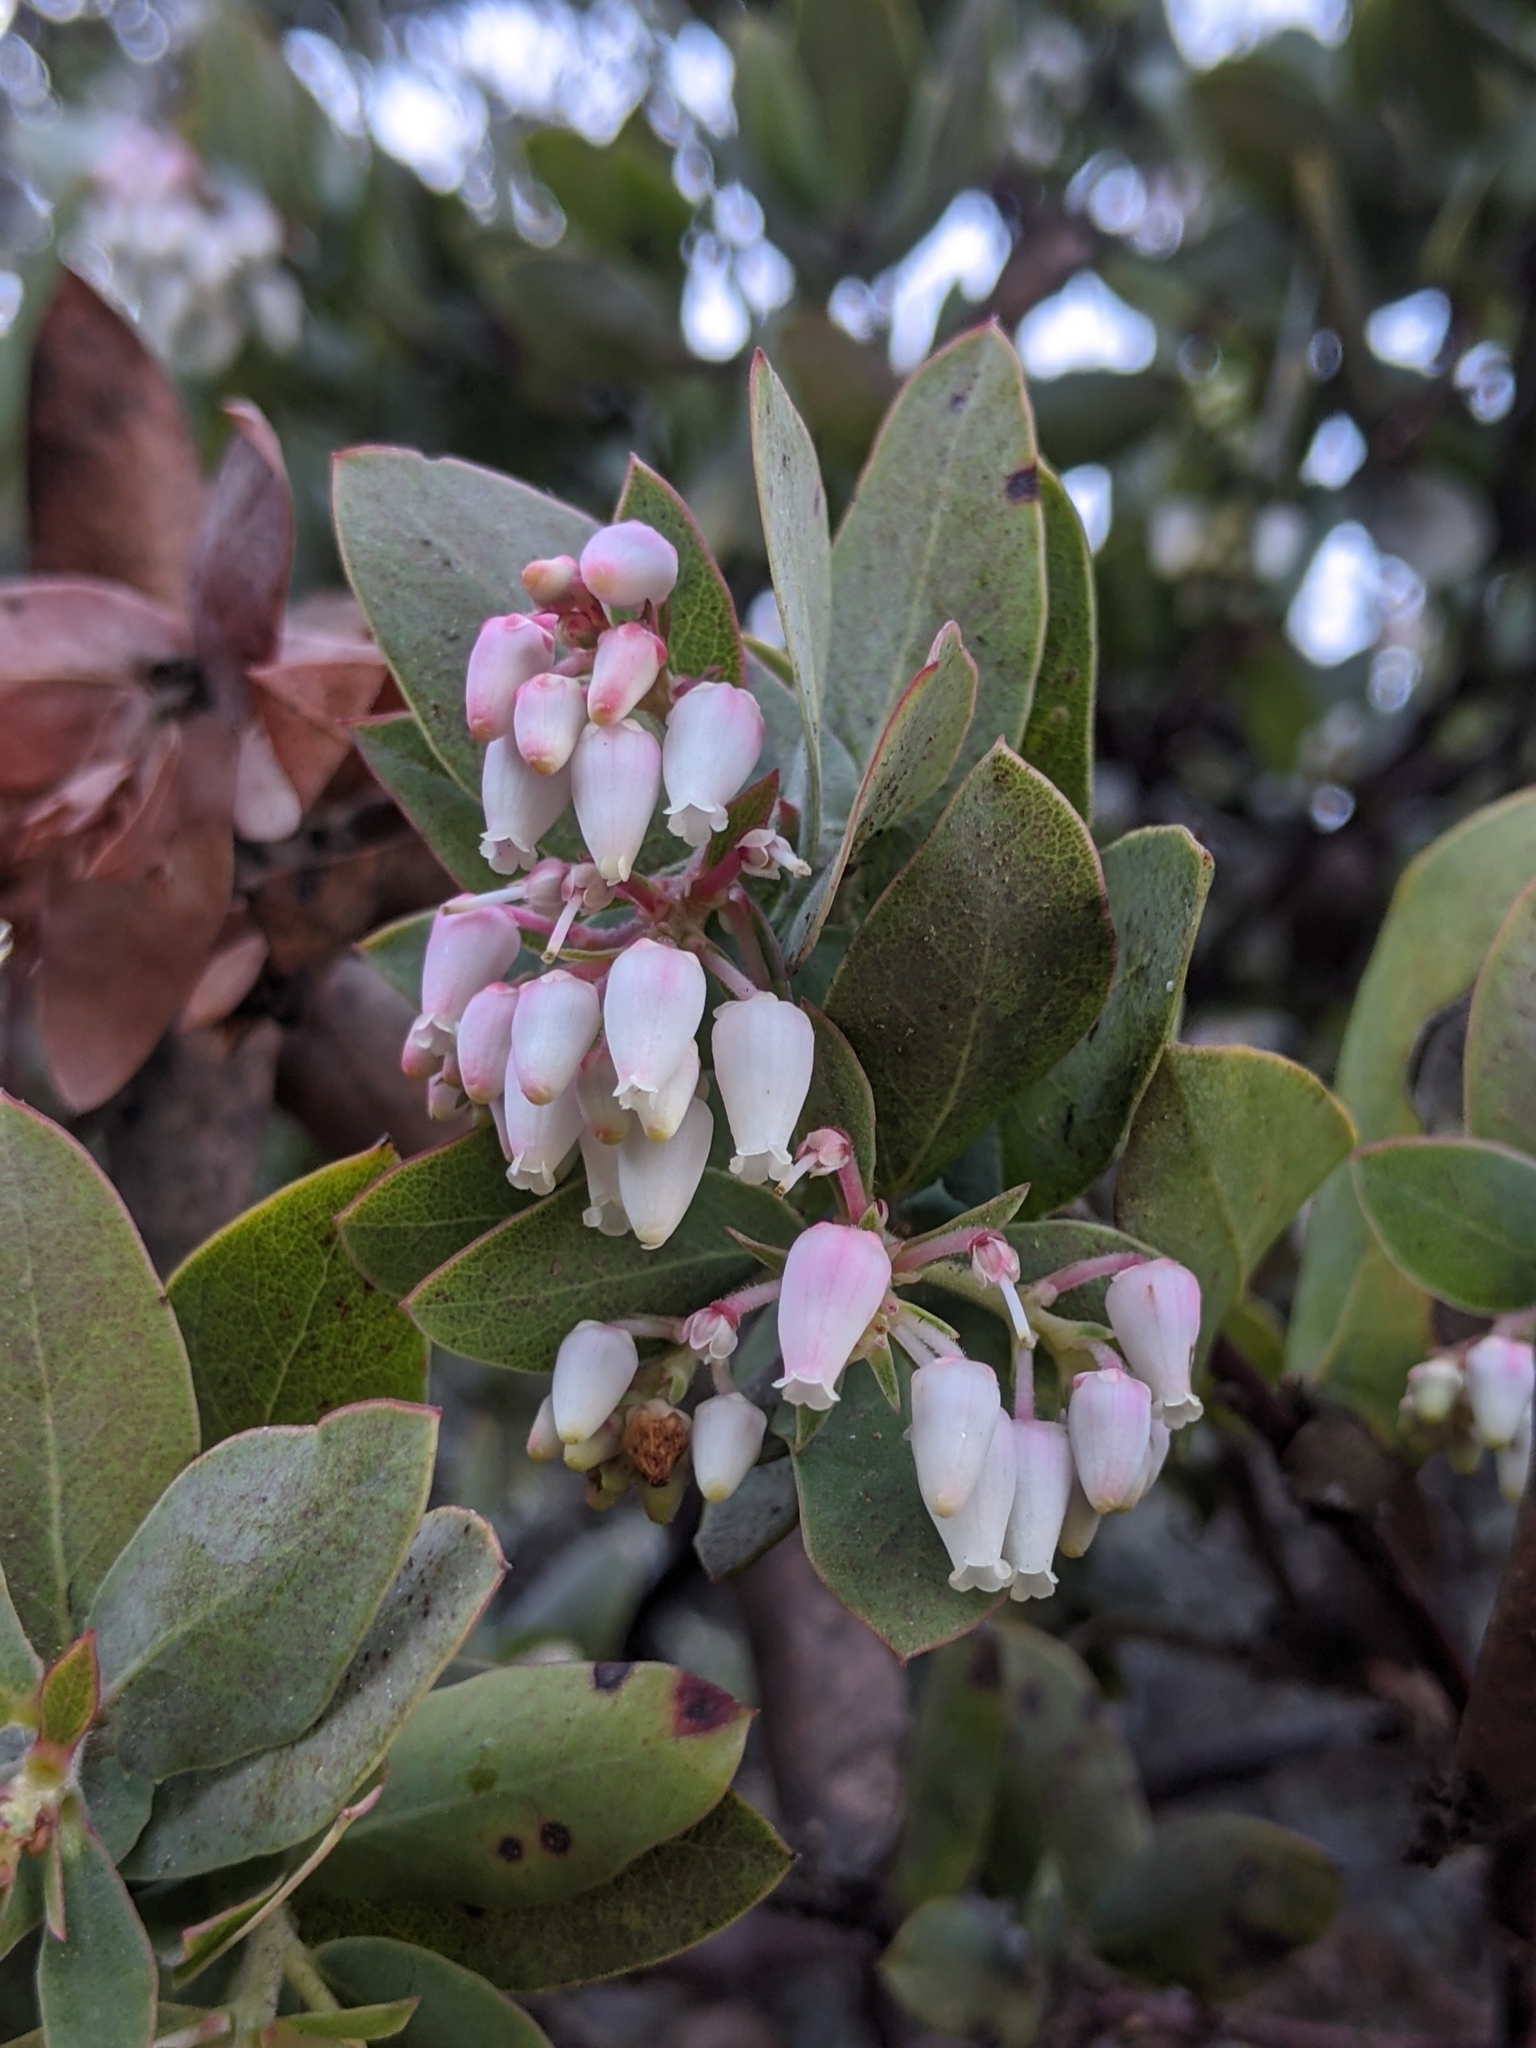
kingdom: Plantae
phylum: Tracheophyta
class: Magnoliopsida
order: Ericales
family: Ericaceae
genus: Arctostaphylos
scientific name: Arctostaphylos pallida
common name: Pallid manzanita
